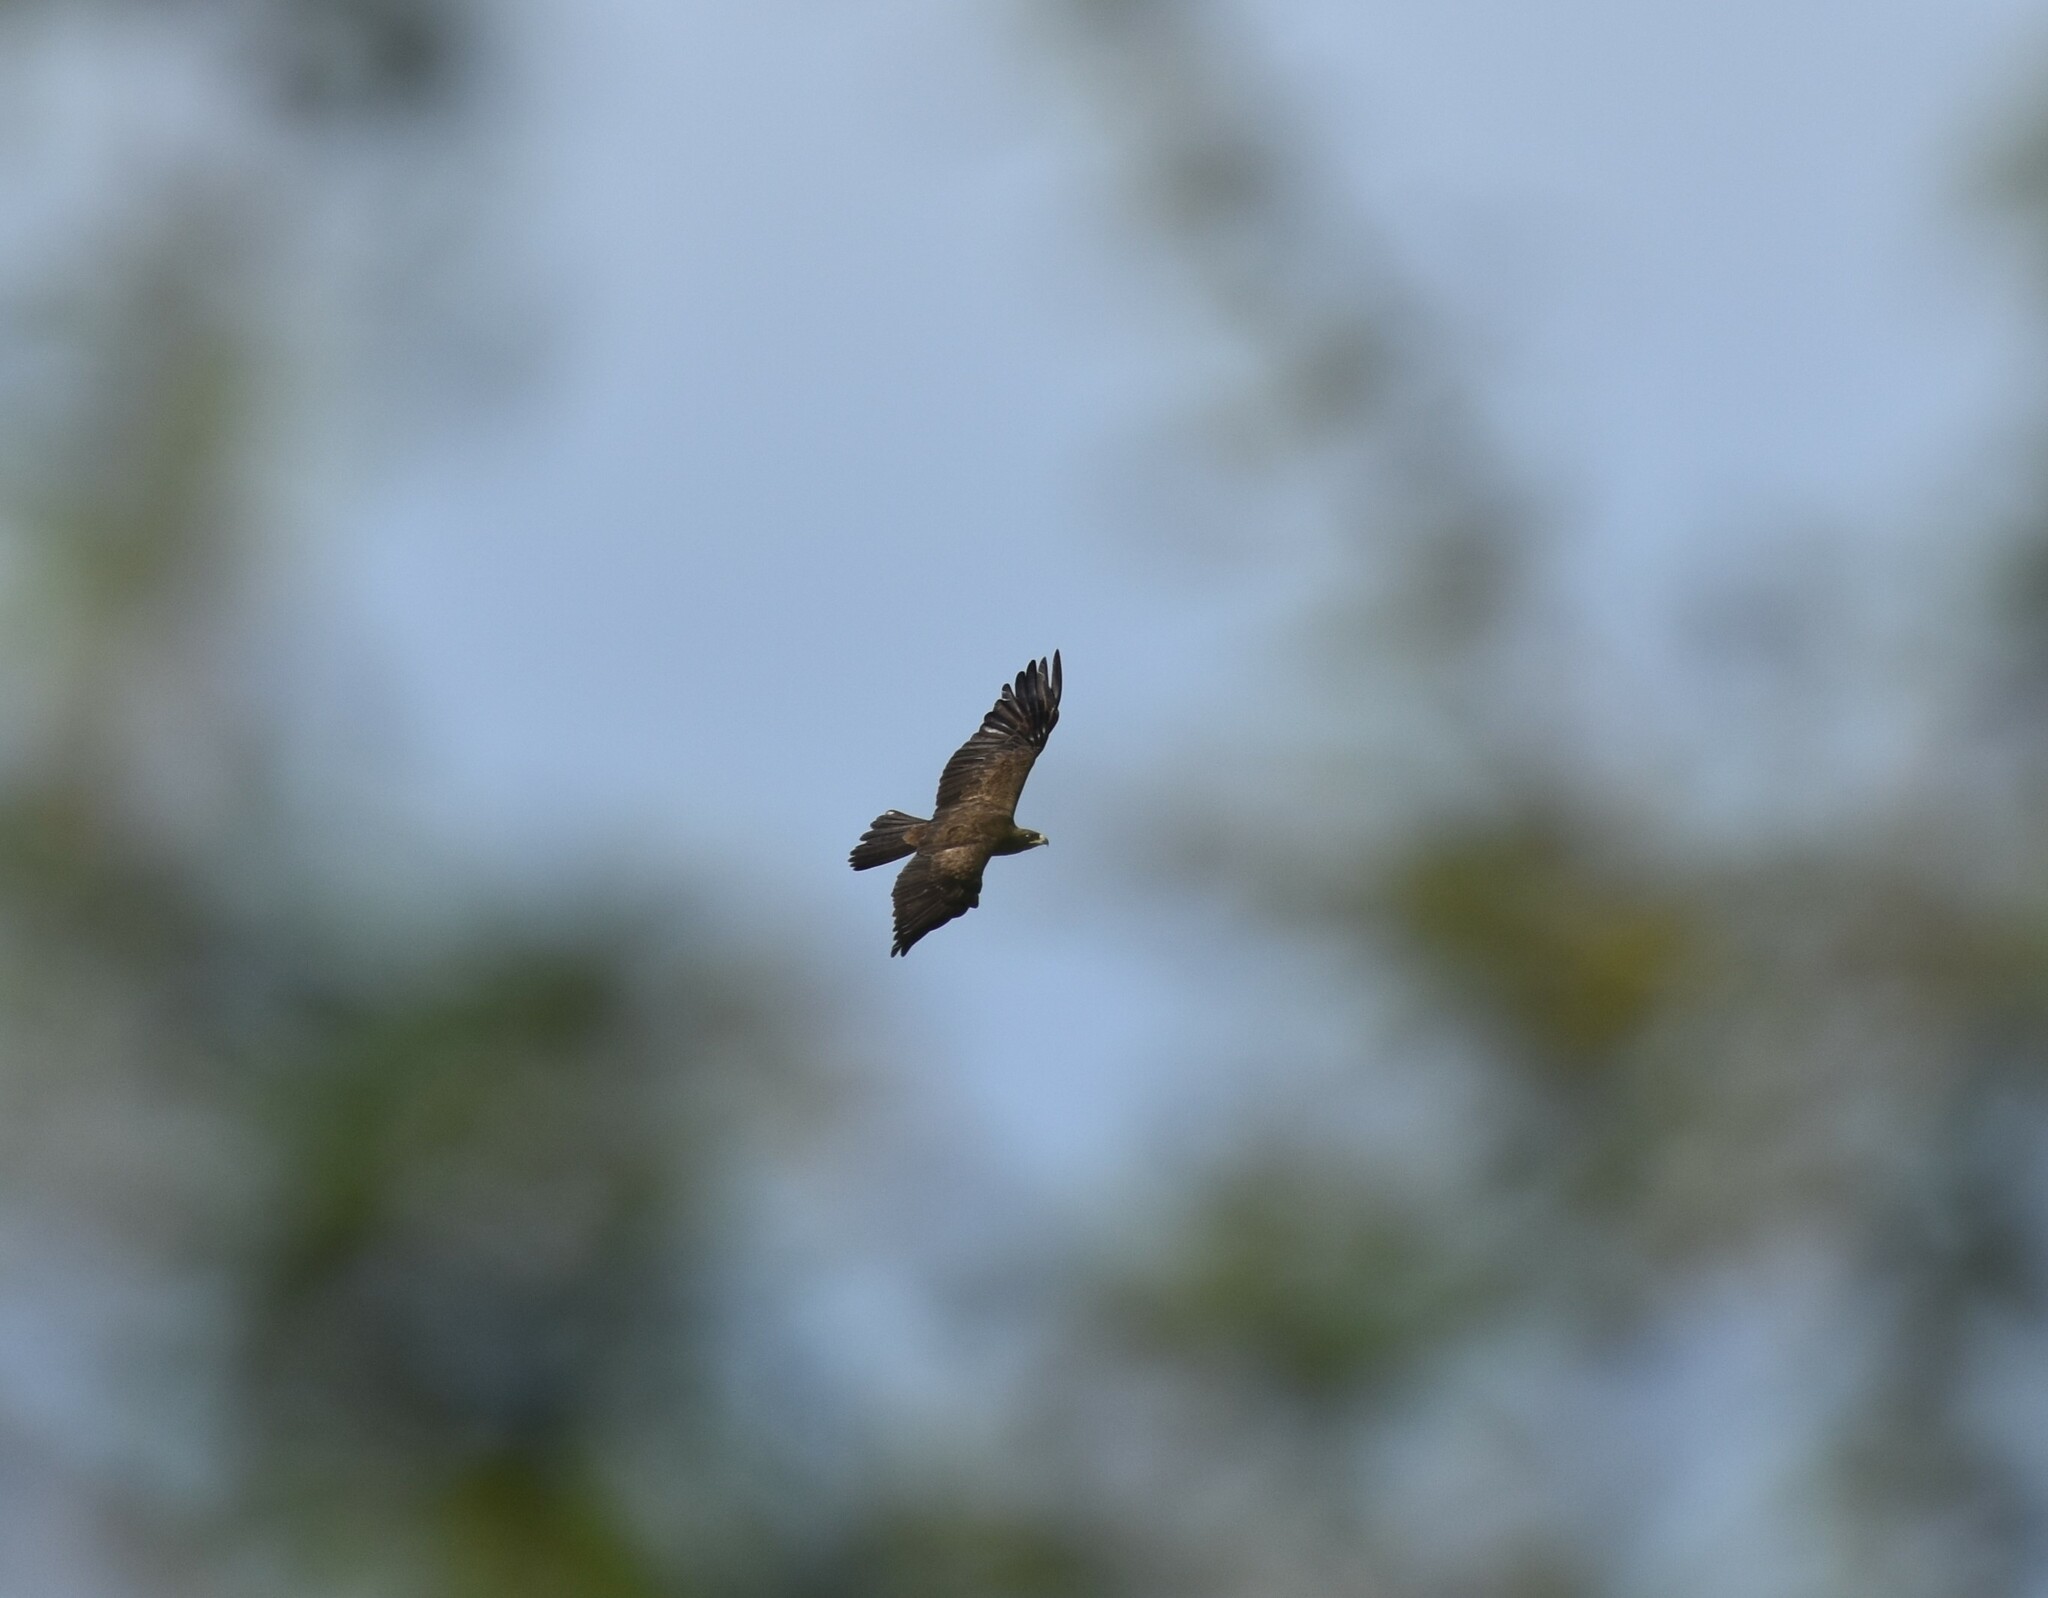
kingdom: Animalia
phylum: Chordata
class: Aves
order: Accipitriformes
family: Accipitridae
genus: Hieraaetus
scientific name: Hieraaetus wahlbergi
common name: Wahlberg's eagle
